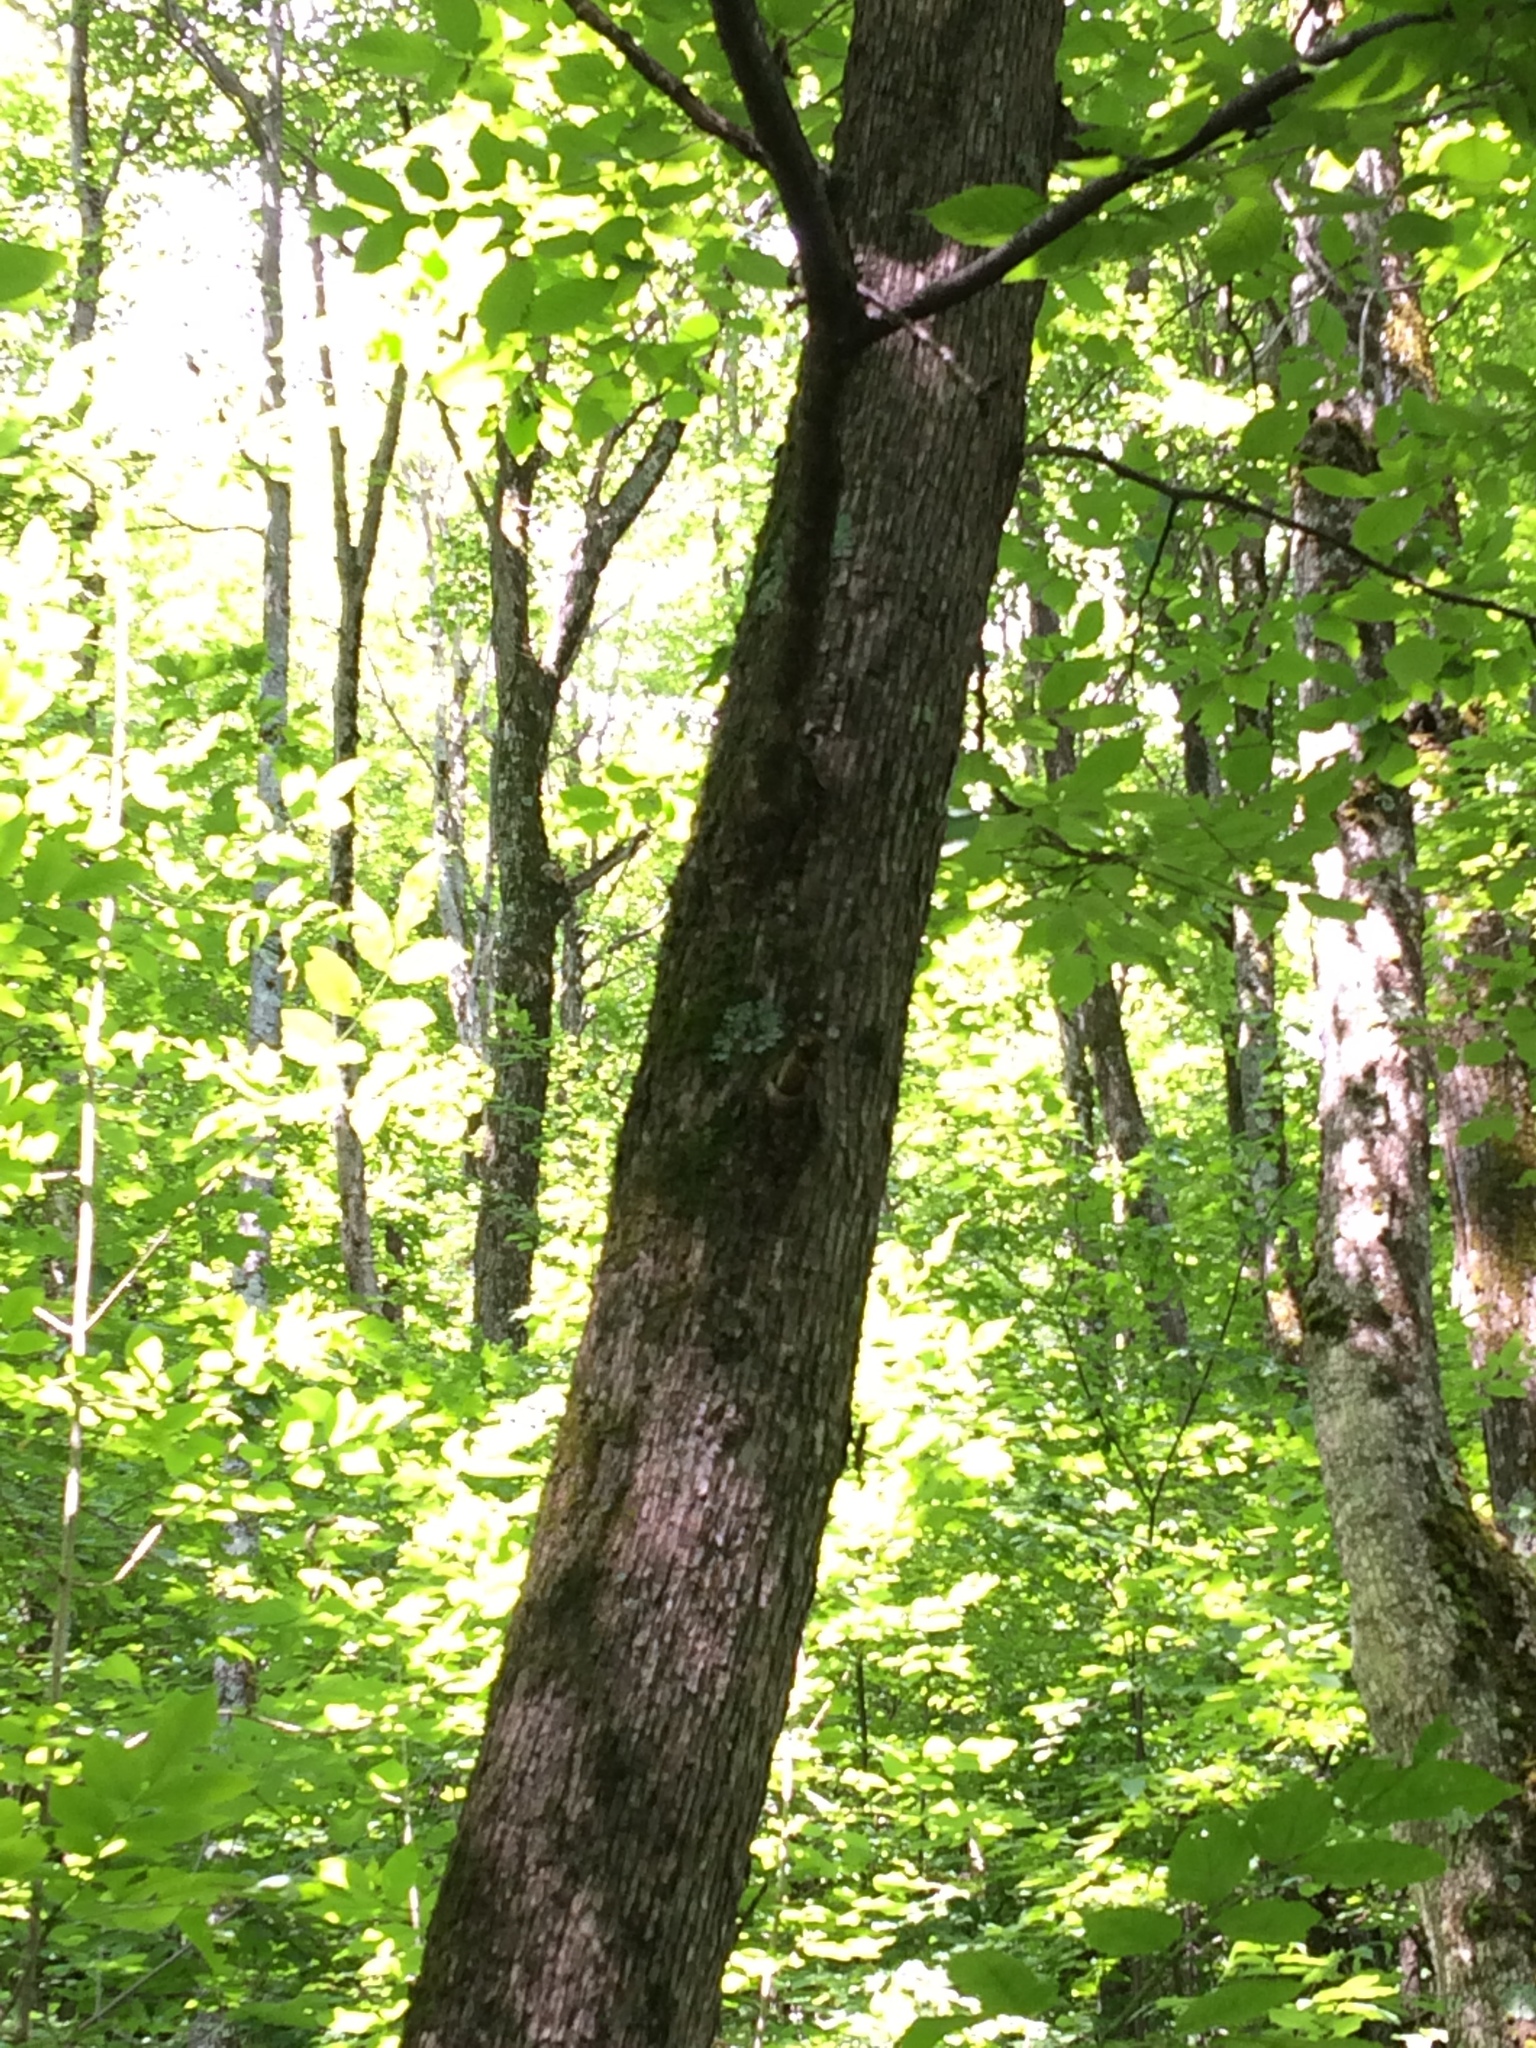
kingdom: Plantae
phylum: Tracheophyta
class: Magnoliopsida
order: Fagales
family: Betulaceae
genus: Ostrya
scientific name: Ostrya virginiana
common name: Ironwood
